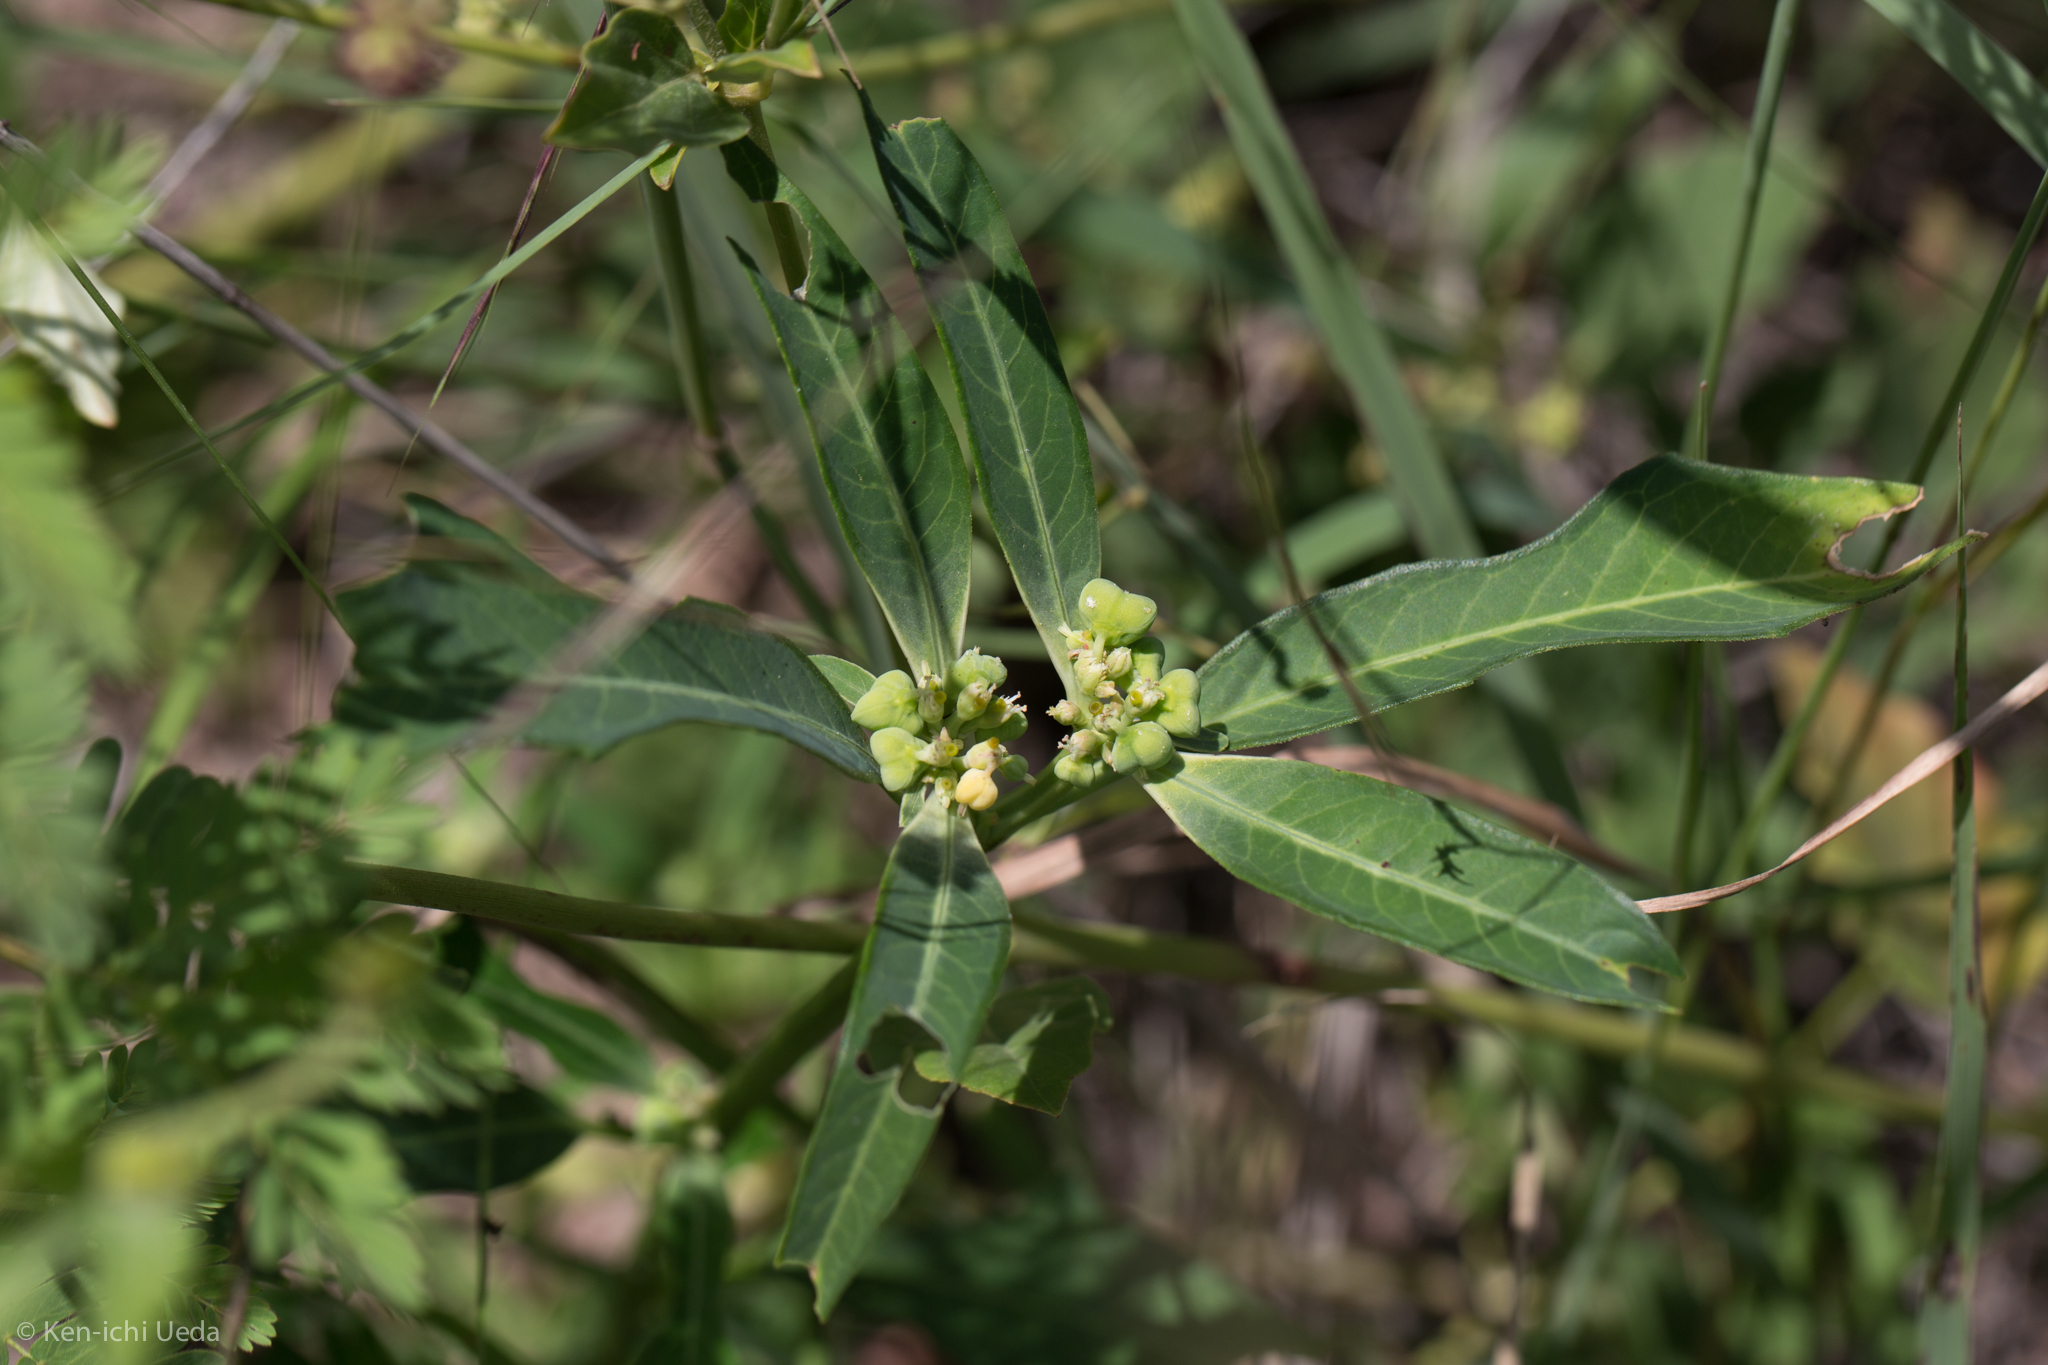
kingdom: Plantae
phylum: Tracheophyta
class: Magnoliopsida
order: Malpighiales
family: Euphorbiaceae
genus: Euphorbia
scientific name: Euphorbia heterophylla
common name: Mexican fireplant
